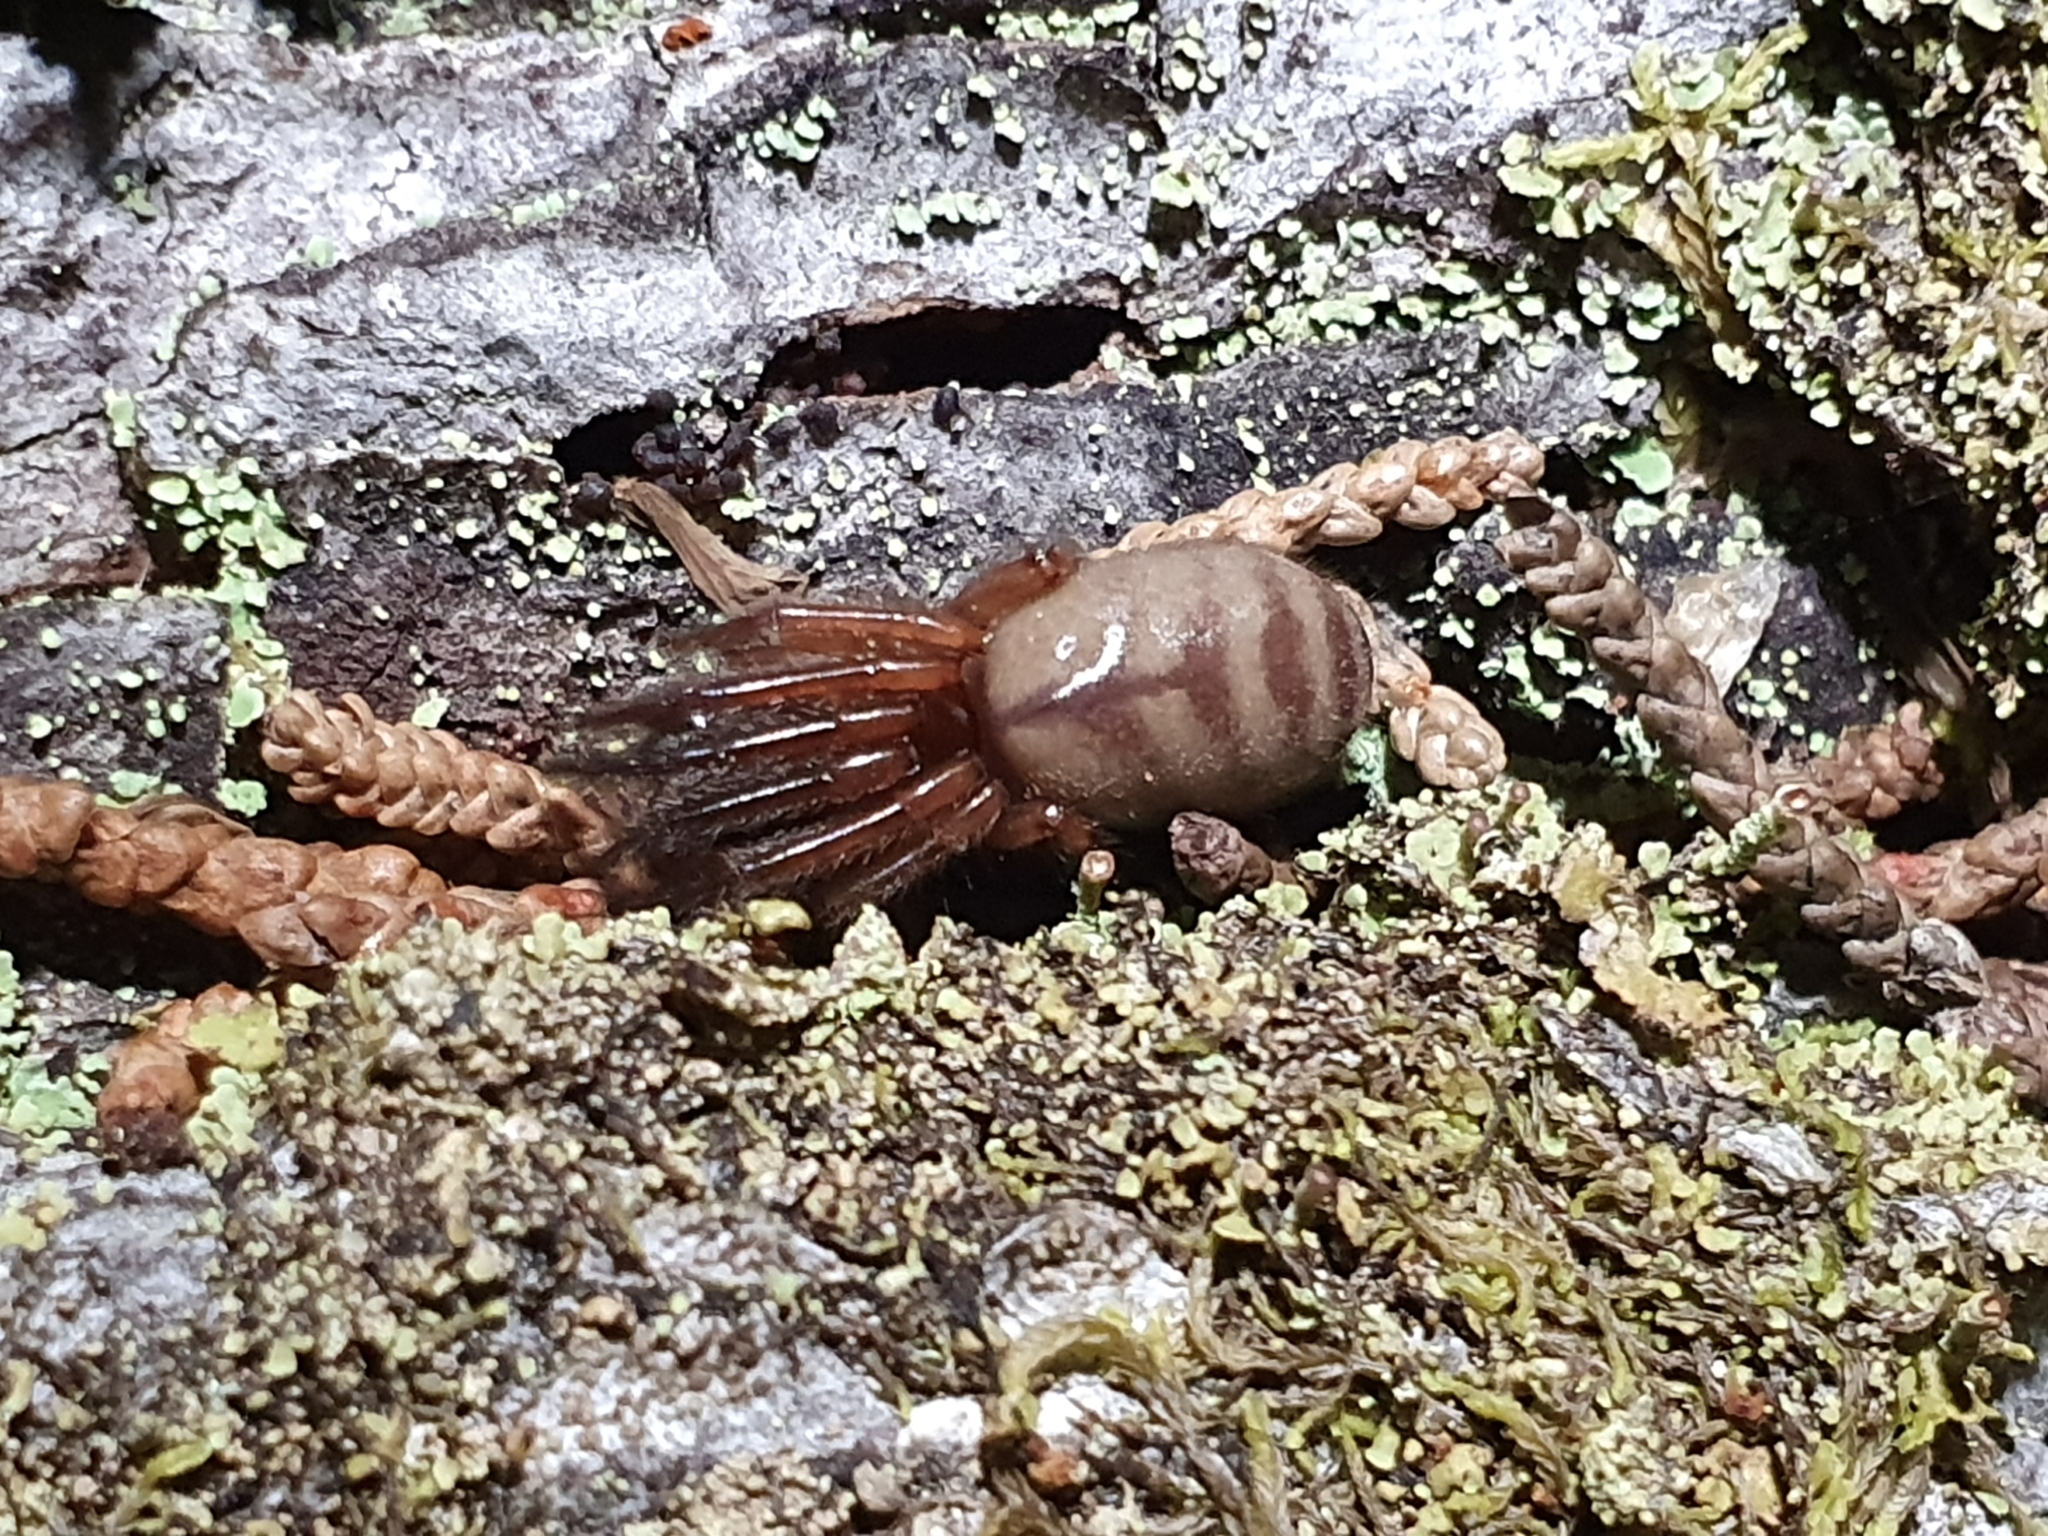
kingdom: Animalia
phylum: Arthropoda
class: Arachnida
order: Araneae
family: Segestriidae
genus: Ariadna
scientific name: Ariadna septemcincta
